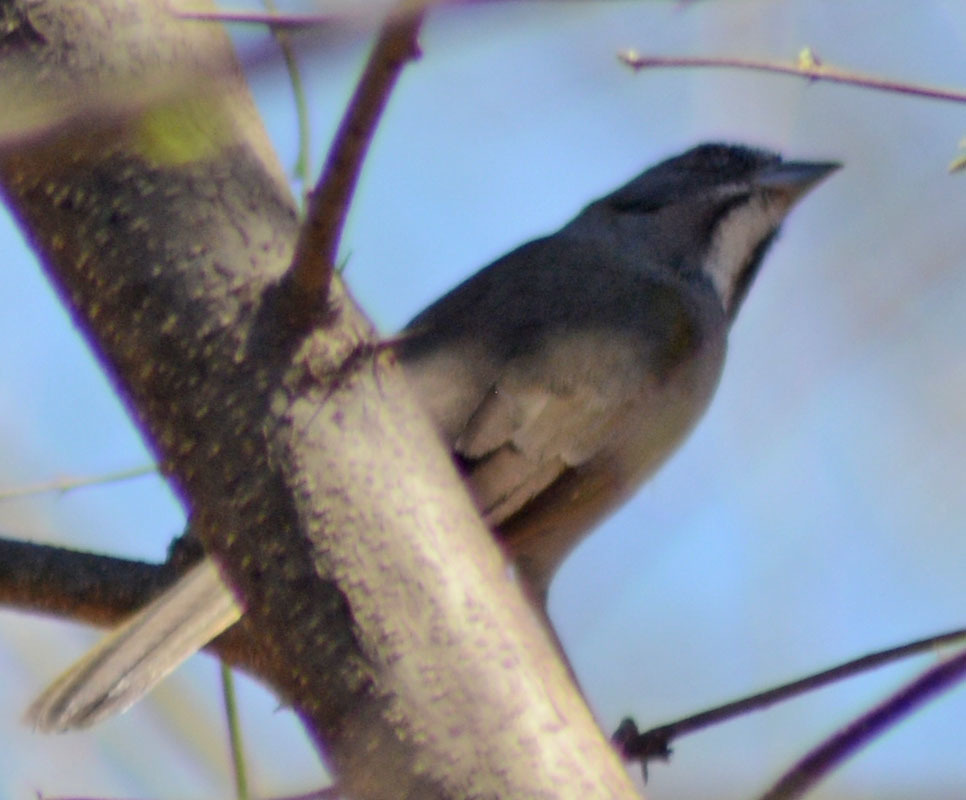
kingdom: Animalia
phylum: Chordata
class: Aves
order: Passeriformes
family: Thraupidae
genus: Saltator
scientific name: Saltator grandis
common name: Cinnamon-bellied saltator
